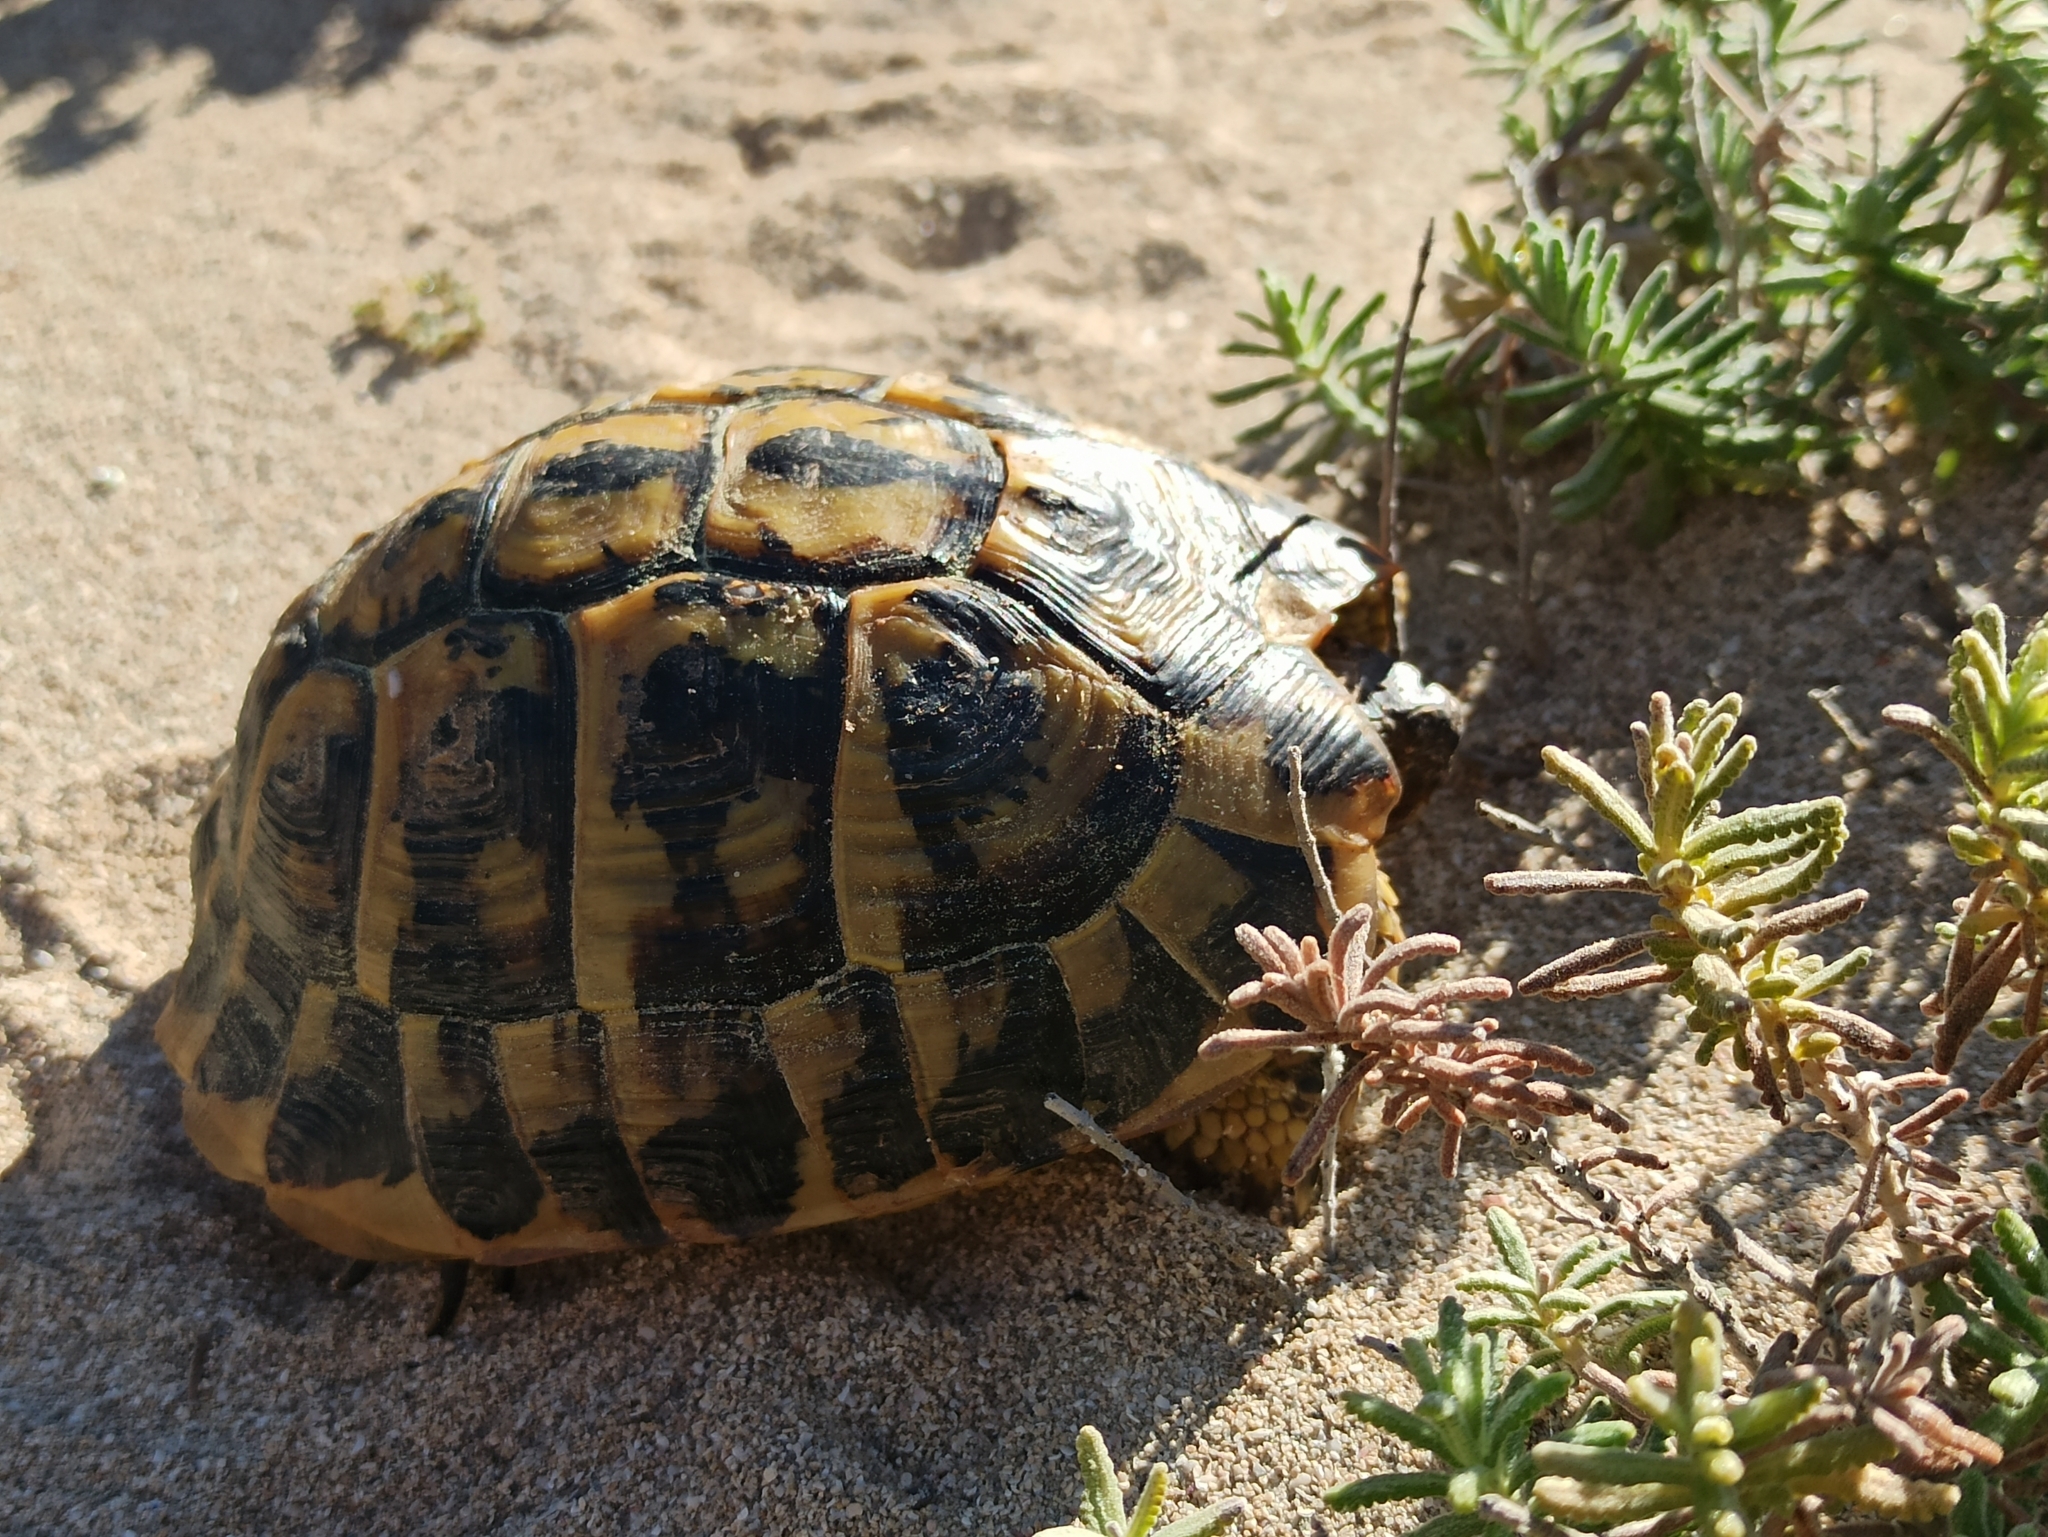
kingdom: Animalia
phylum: Chordata
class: Testudines
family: Testudinidae
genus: Testudo
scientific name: Testudo hermanni
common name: Hermann's tortoise
